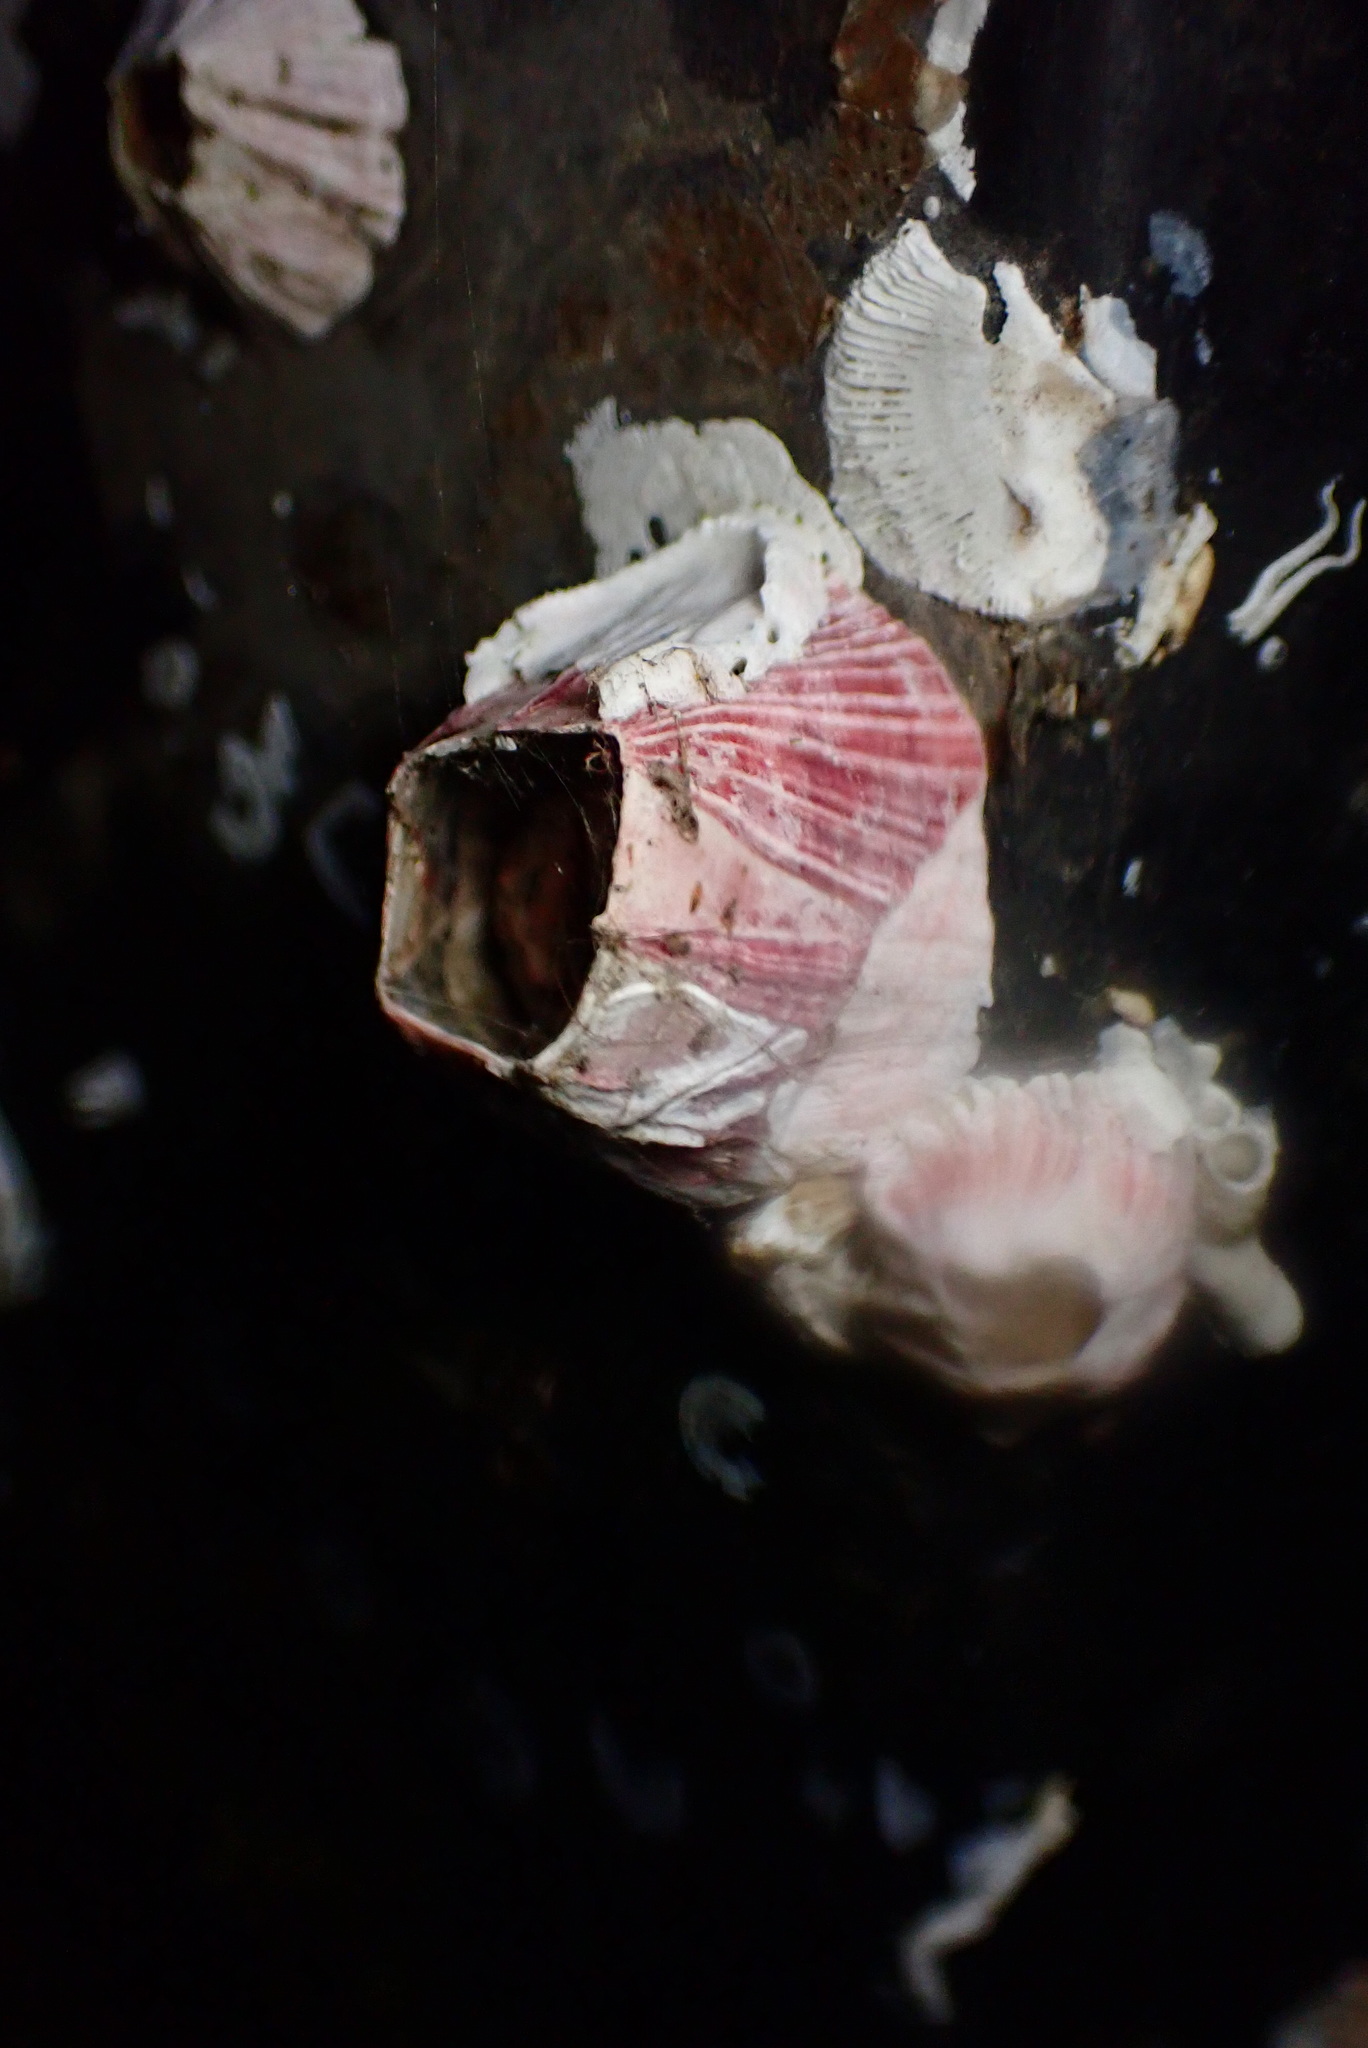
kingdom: Animalia
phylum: Arthropoda
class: Maxillopoda
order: Sessilia
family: Balanidae
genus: Megabalanus
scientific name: Megabalanus californicus
